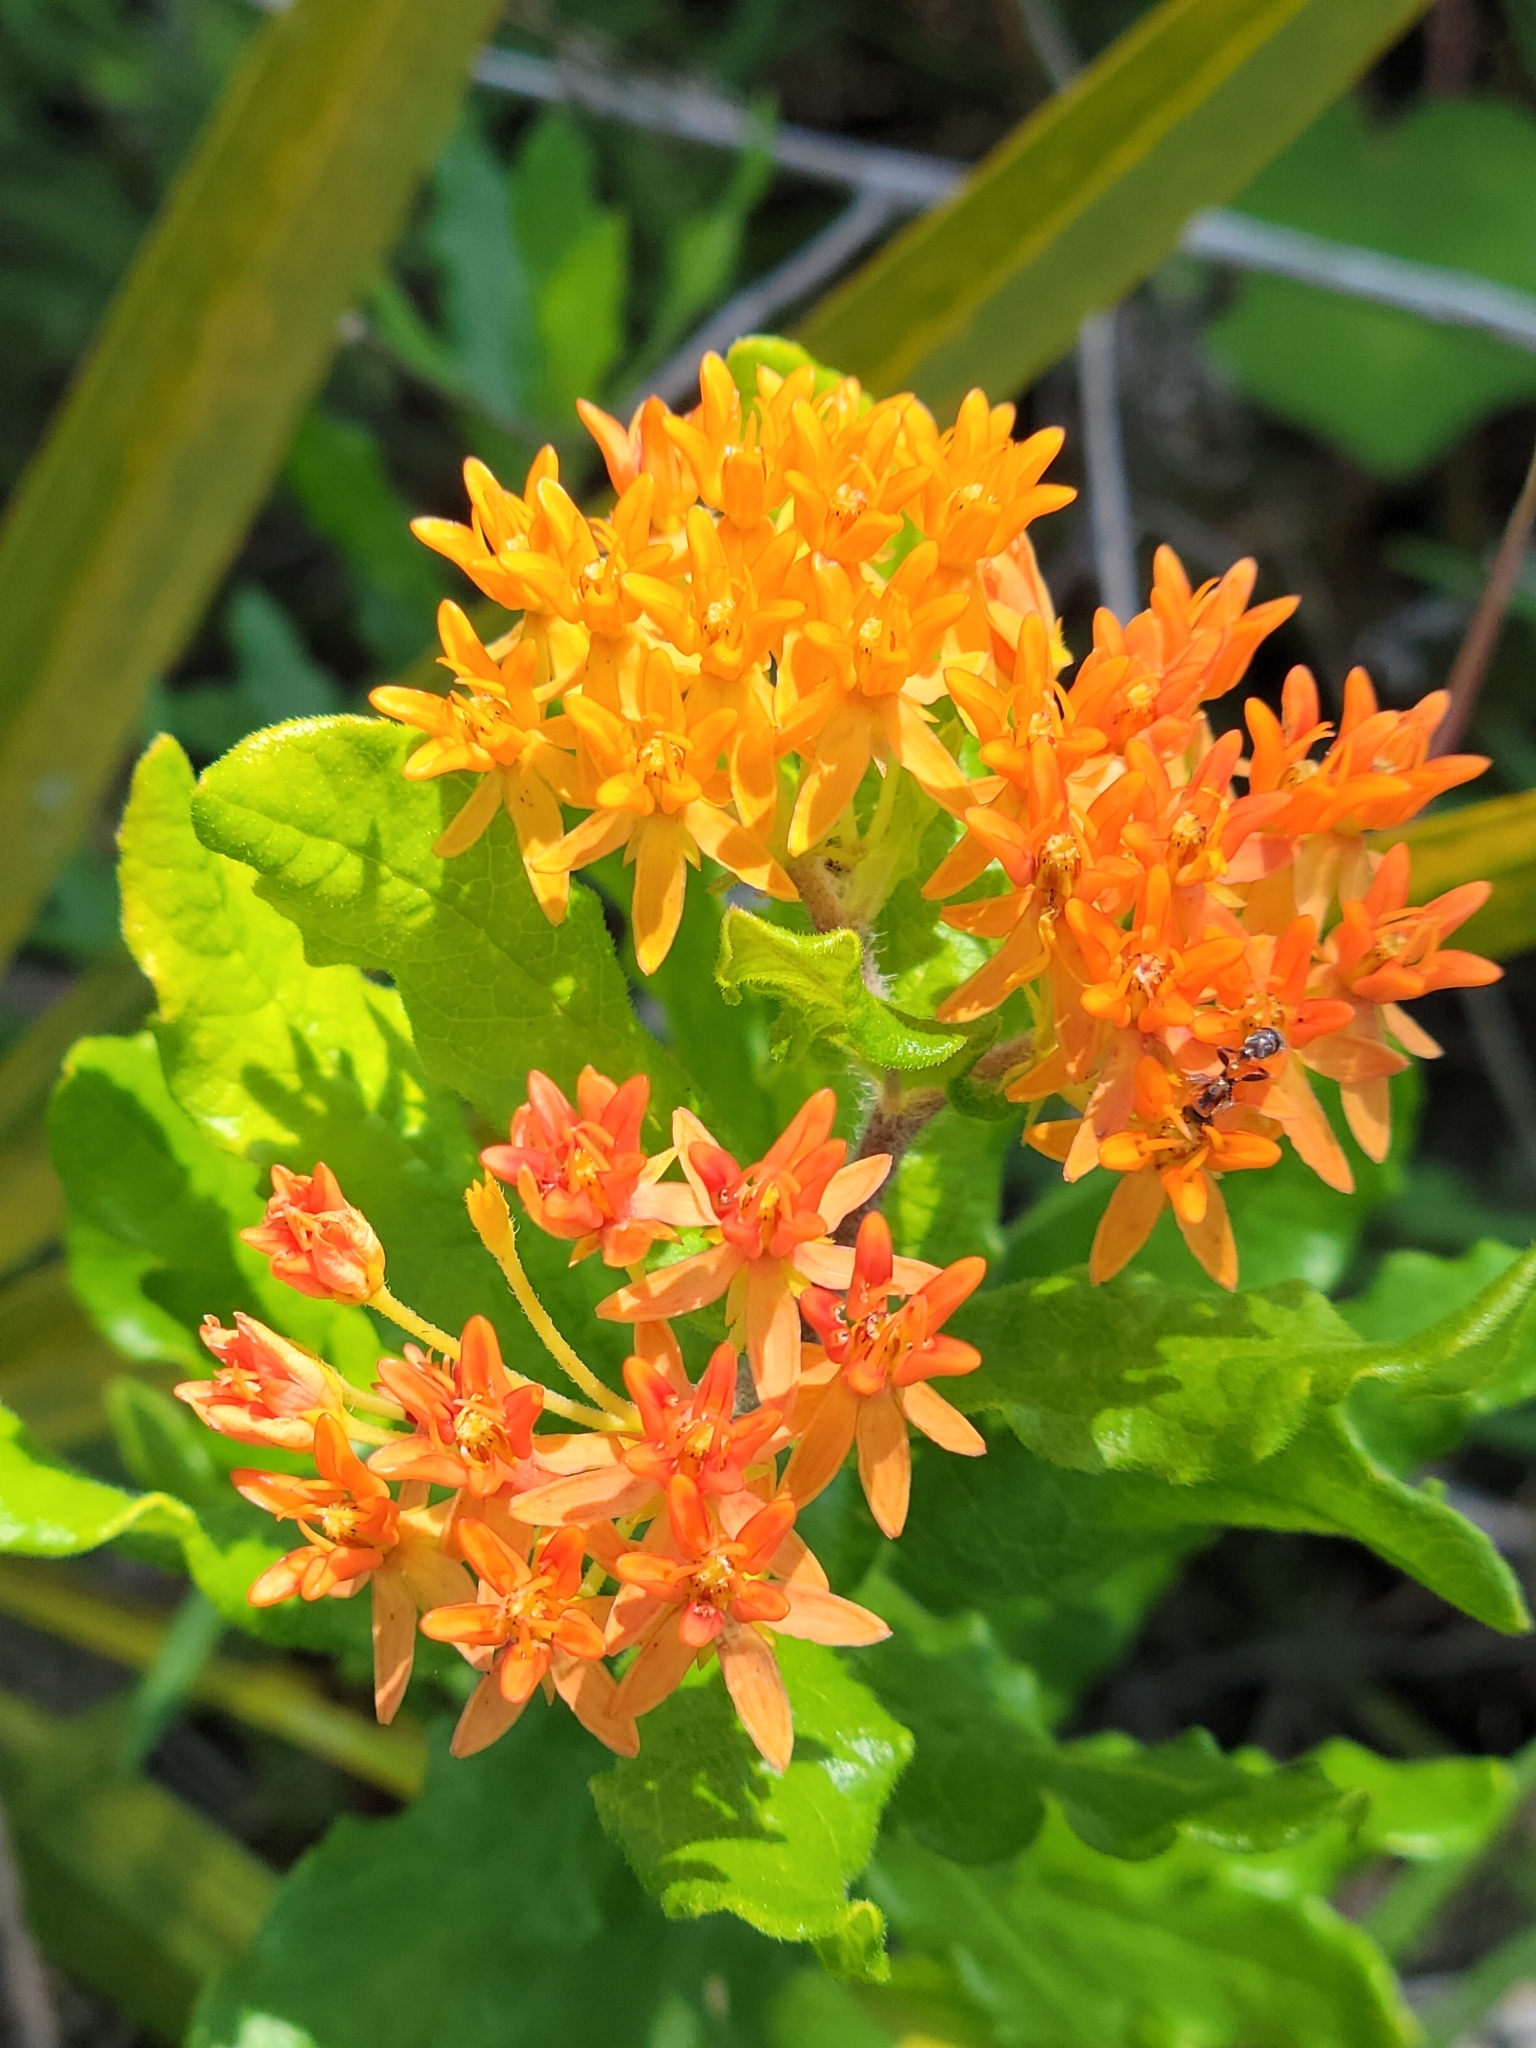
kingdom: Plantae
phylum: Tracheophyta
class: Magnoliopsida
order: Gentianales
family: Apocynaceae
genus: Asclepias
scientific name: Asclepias tuberosa
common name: Butterfly milkweed
